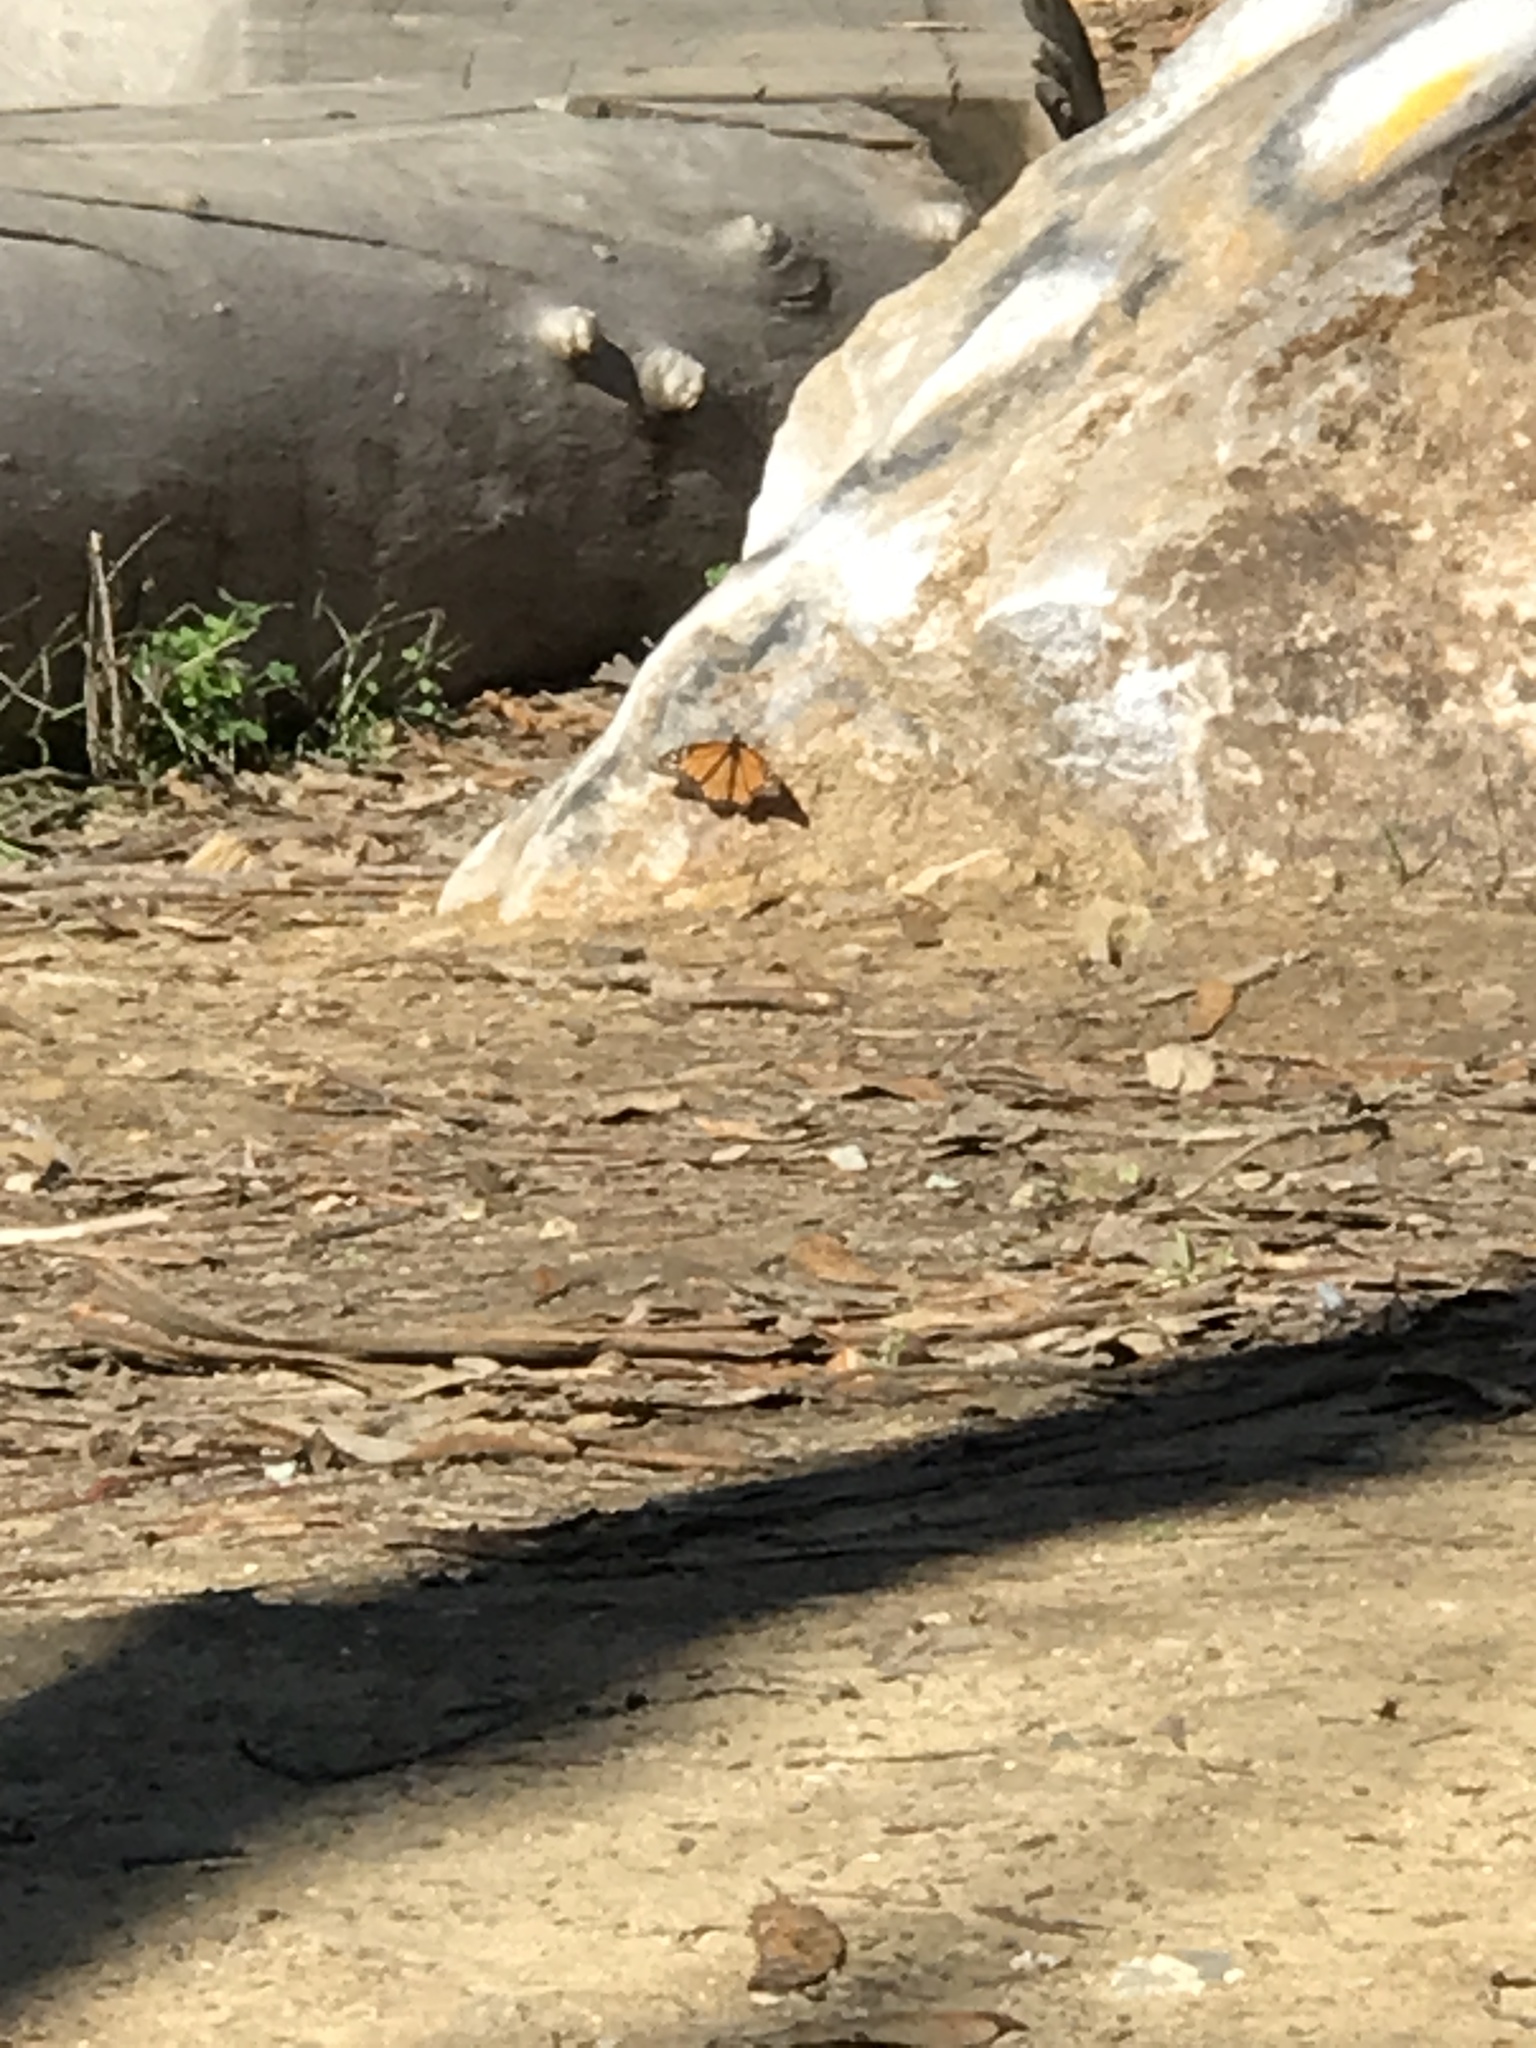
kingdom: Animalia
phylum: Arthropoda
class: Insecta
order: Lepidoptera
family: Nymphalidae
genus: Danaus
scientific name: Danaus plexippus
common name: Monarch
